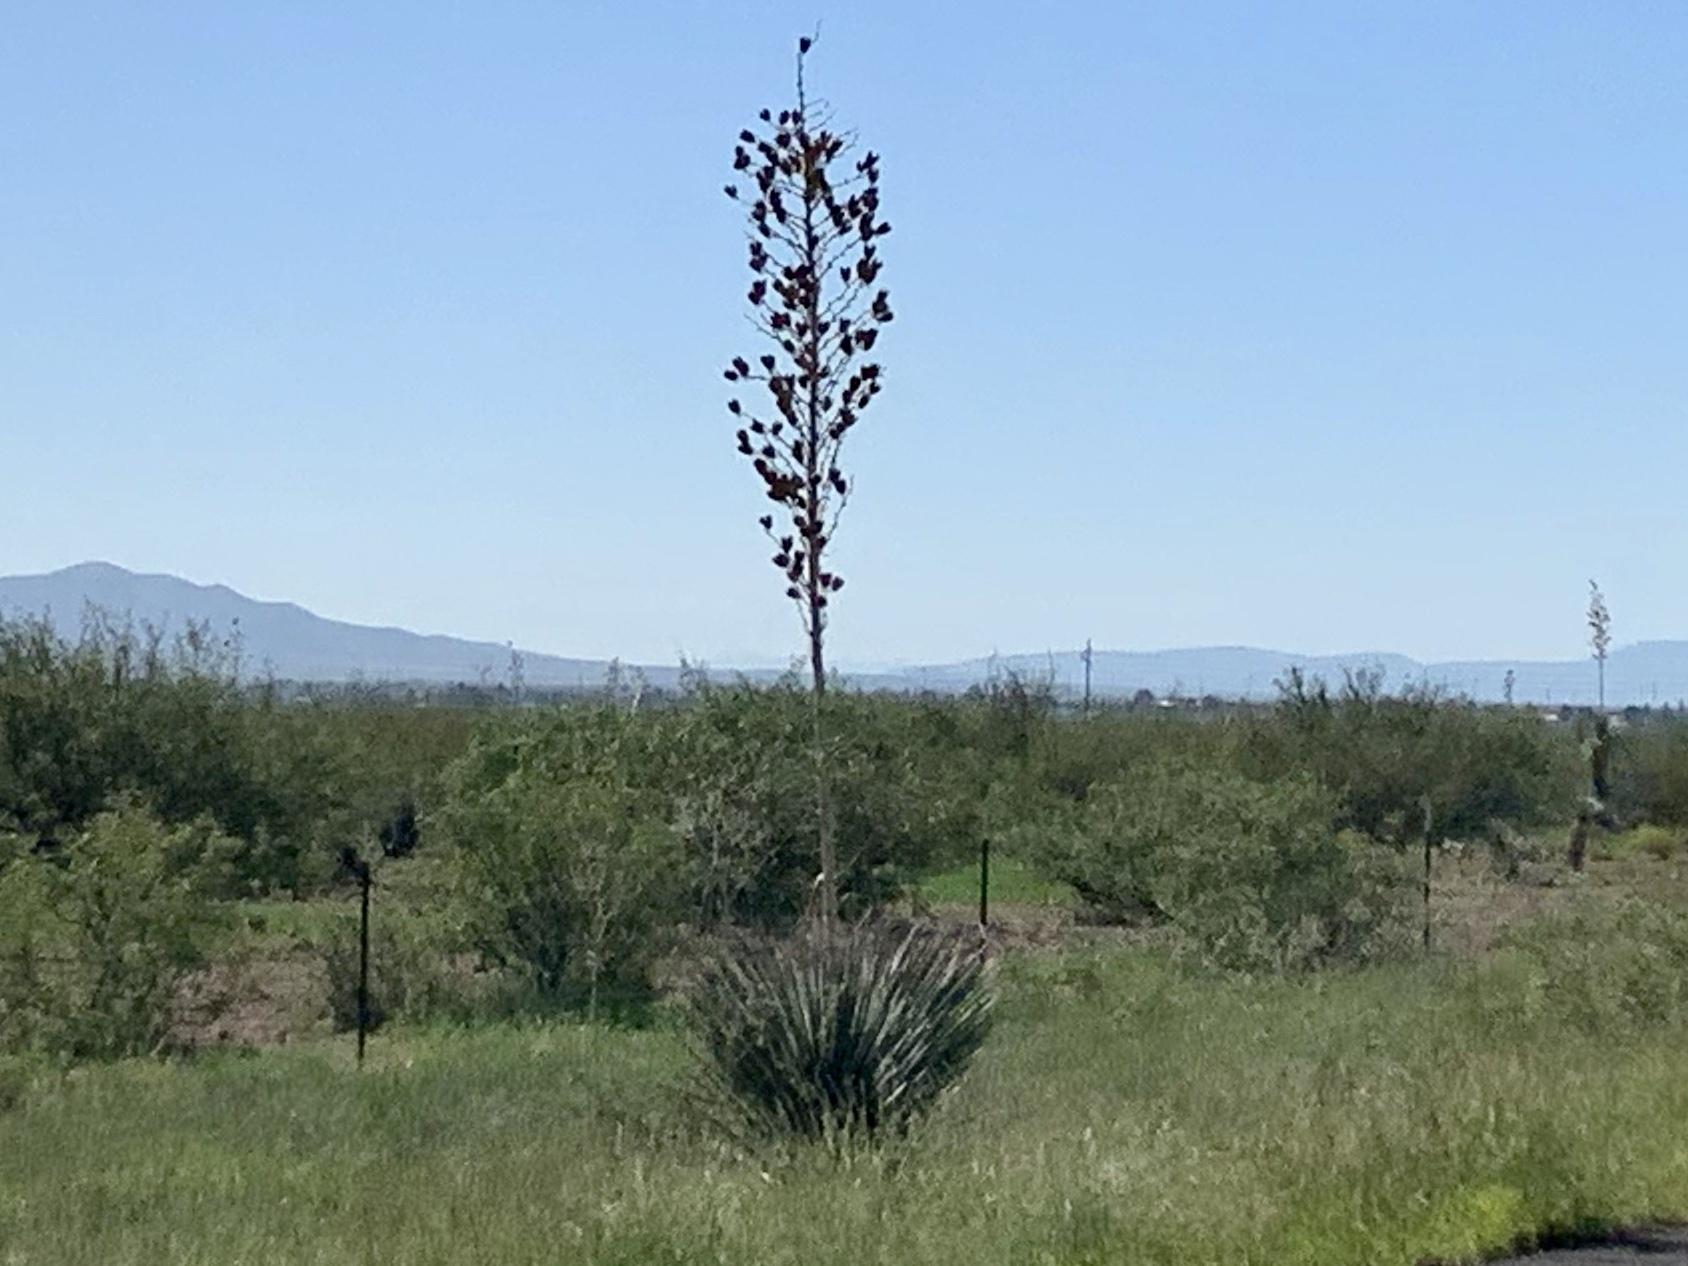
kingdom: Plantae
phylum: Tracheophyta
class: Liliopsida
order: Asparagales
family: Asparagaceae
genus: Yucca
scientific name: Yucca elata
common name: Palmella
